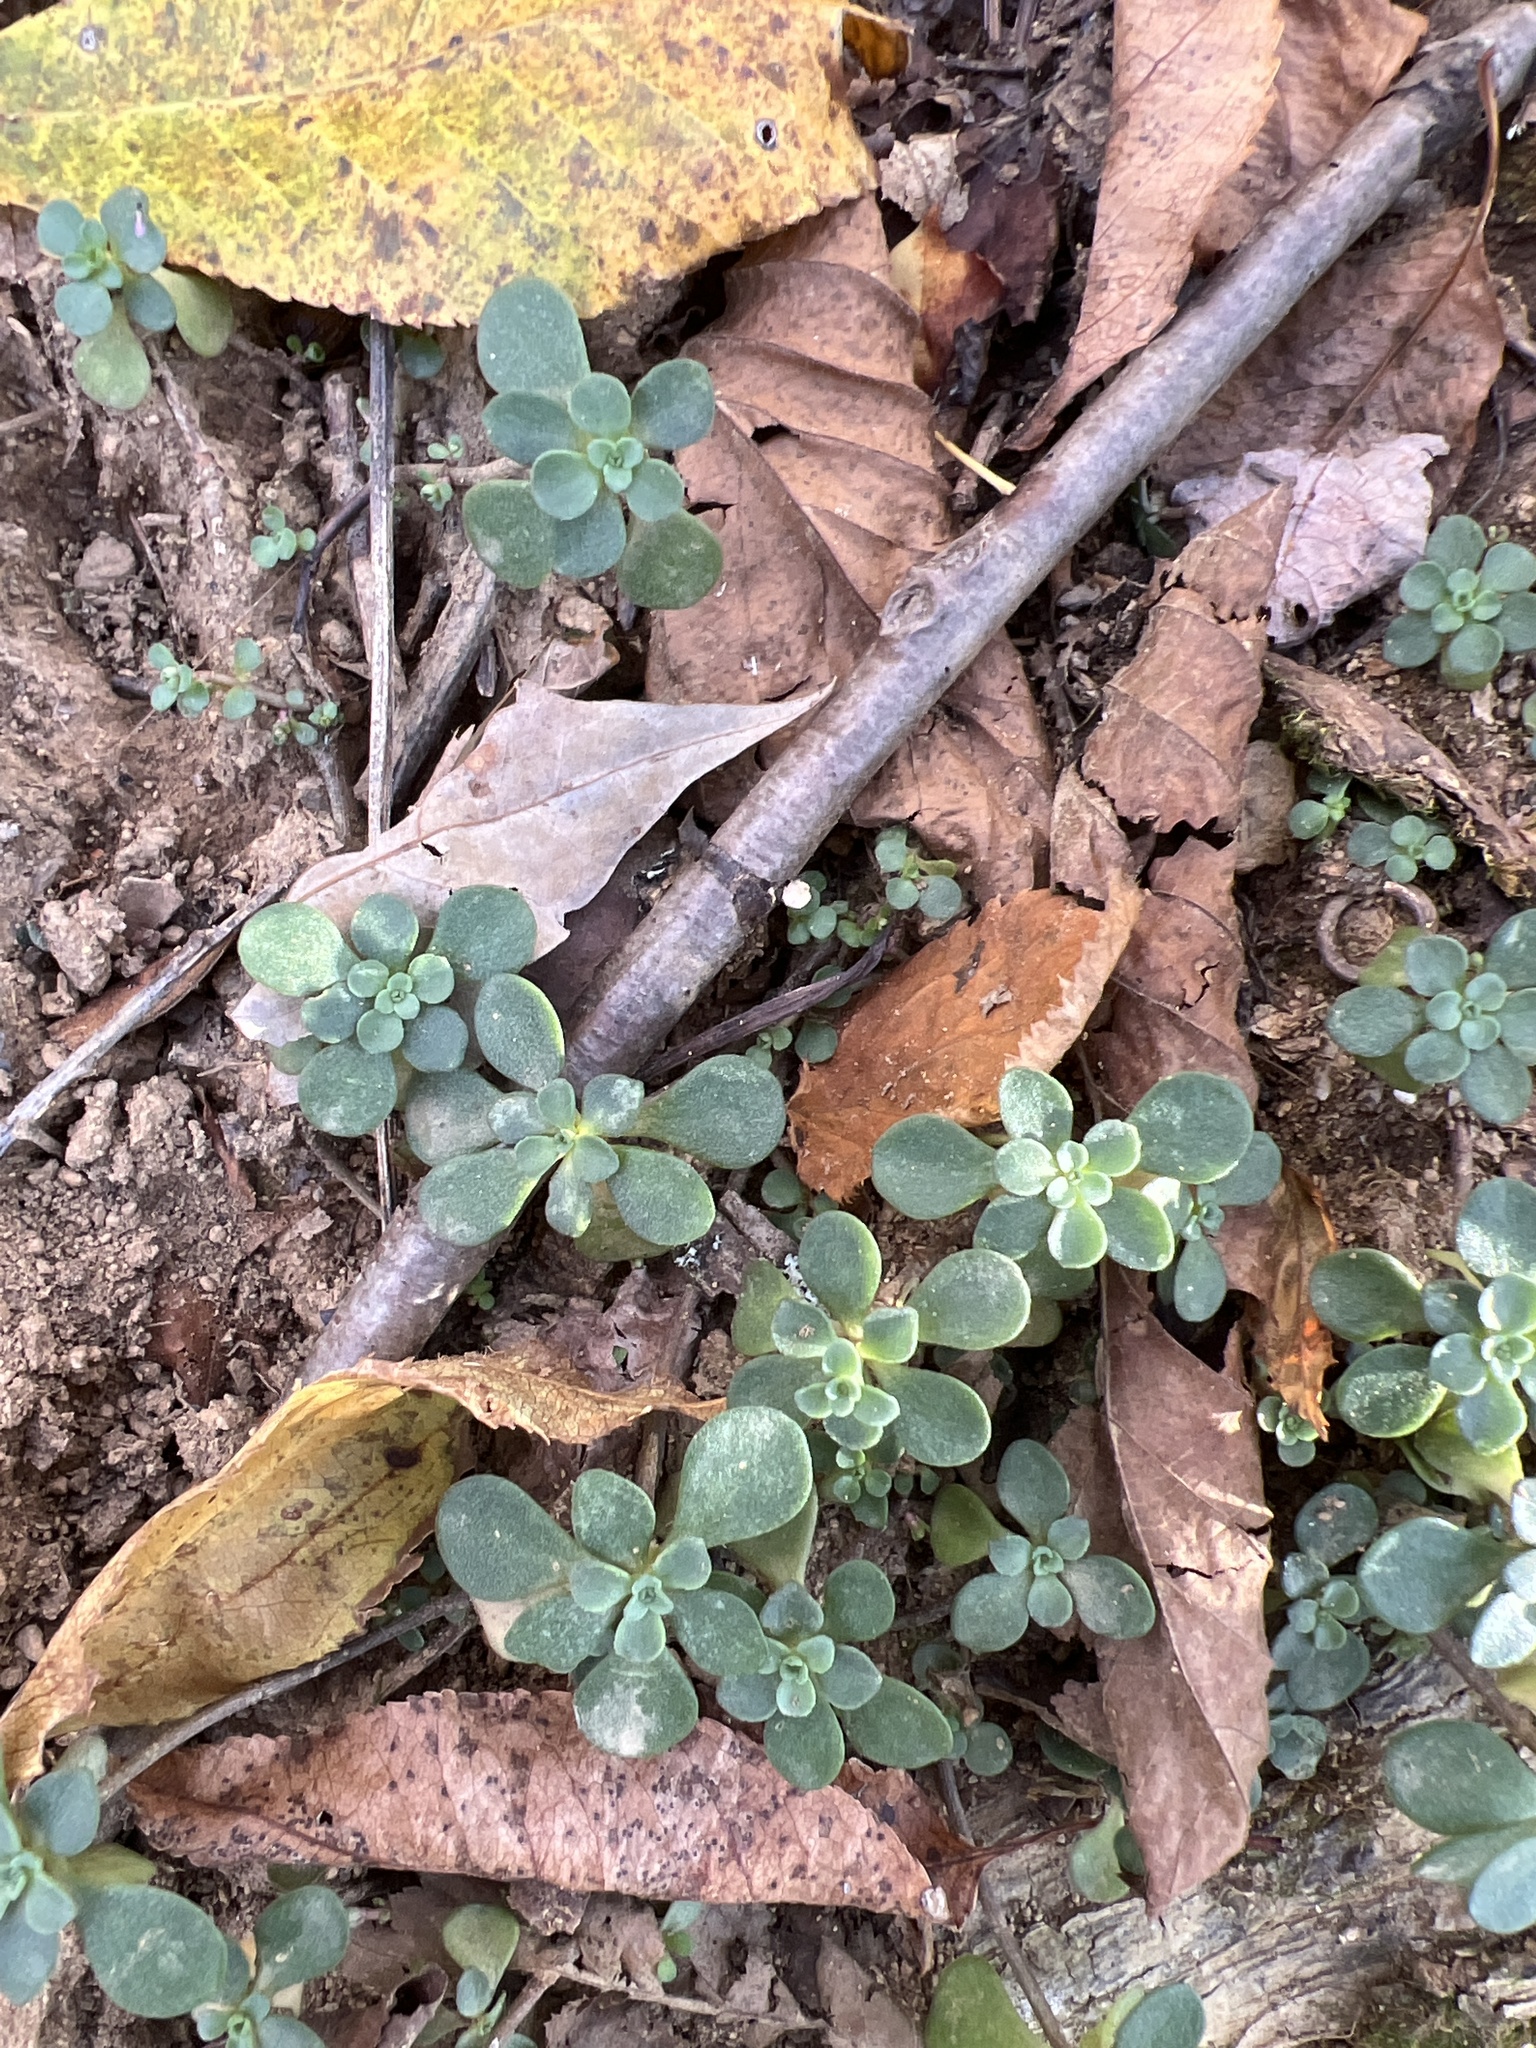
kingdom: Plantae
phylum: Tracheophyta
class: Magnoliopsida
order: Saxifragales
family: Crassulaceae
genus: Sedum
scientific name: Sedum ternatum
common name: Wild stonecrop
